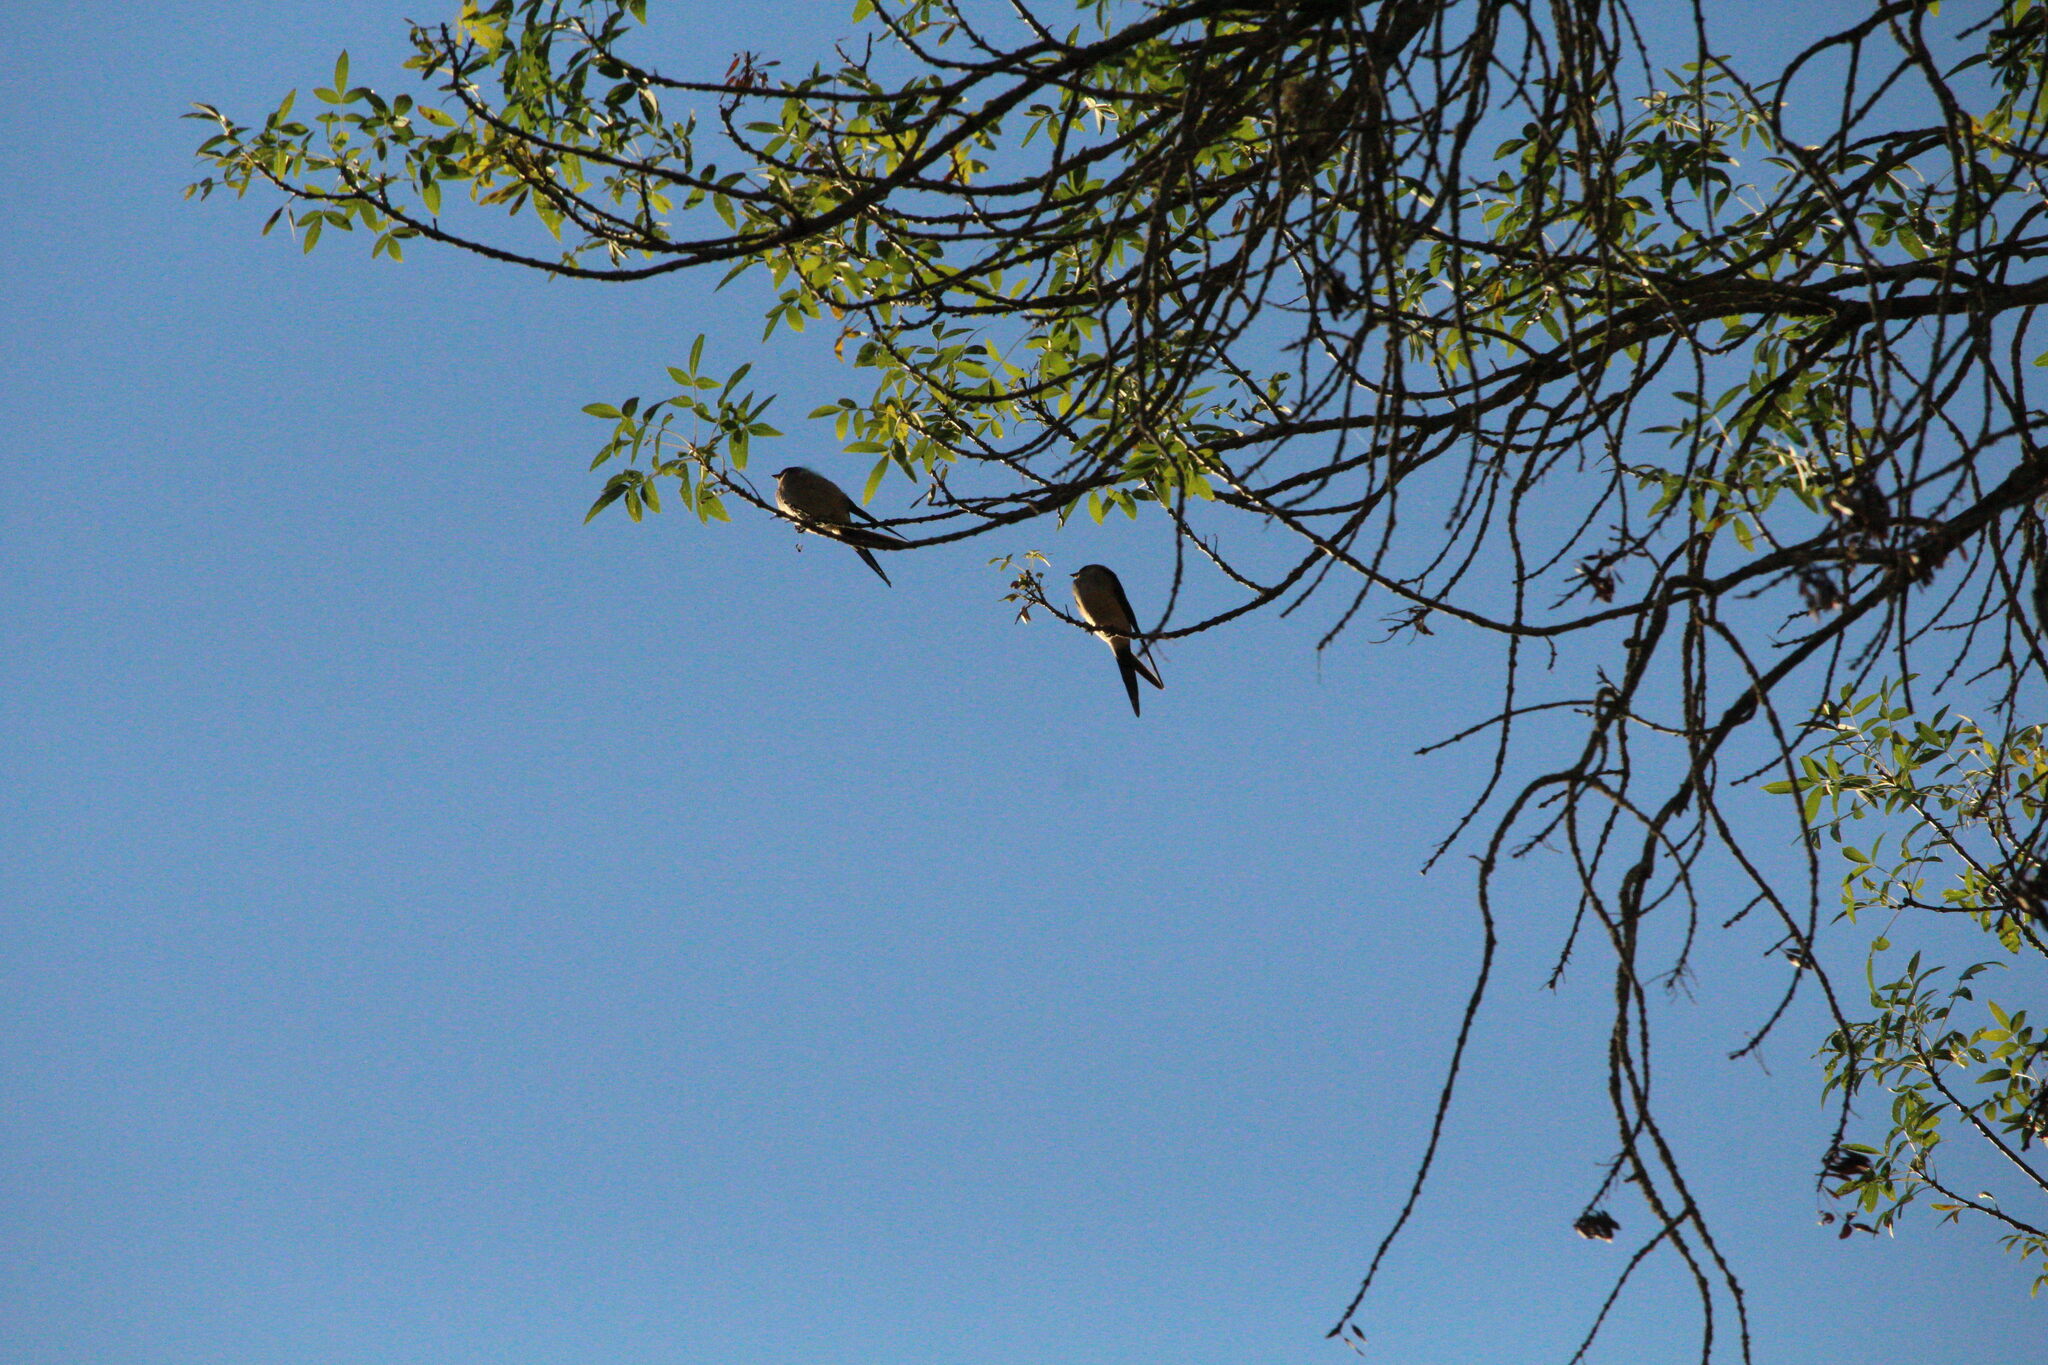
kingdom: Animalia
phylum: Chordata
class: Aves
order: Passeriformes
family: Hirundinidae
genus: Cecropis
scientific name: Cecropis daurica
